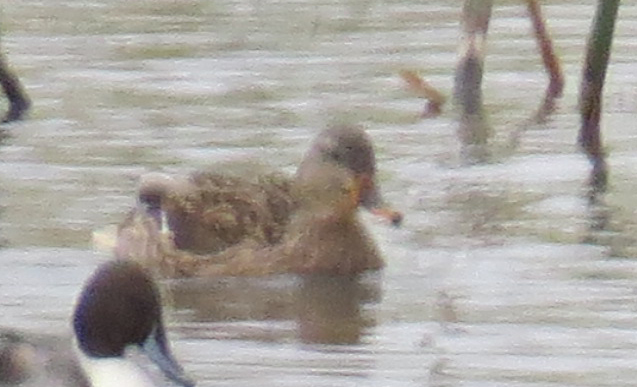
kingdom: Animalia
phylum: Chordata
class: Aves
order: Anseriformes
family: Anatidae
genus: Anas
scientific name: Anas platyrhynchos
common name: Mallard
